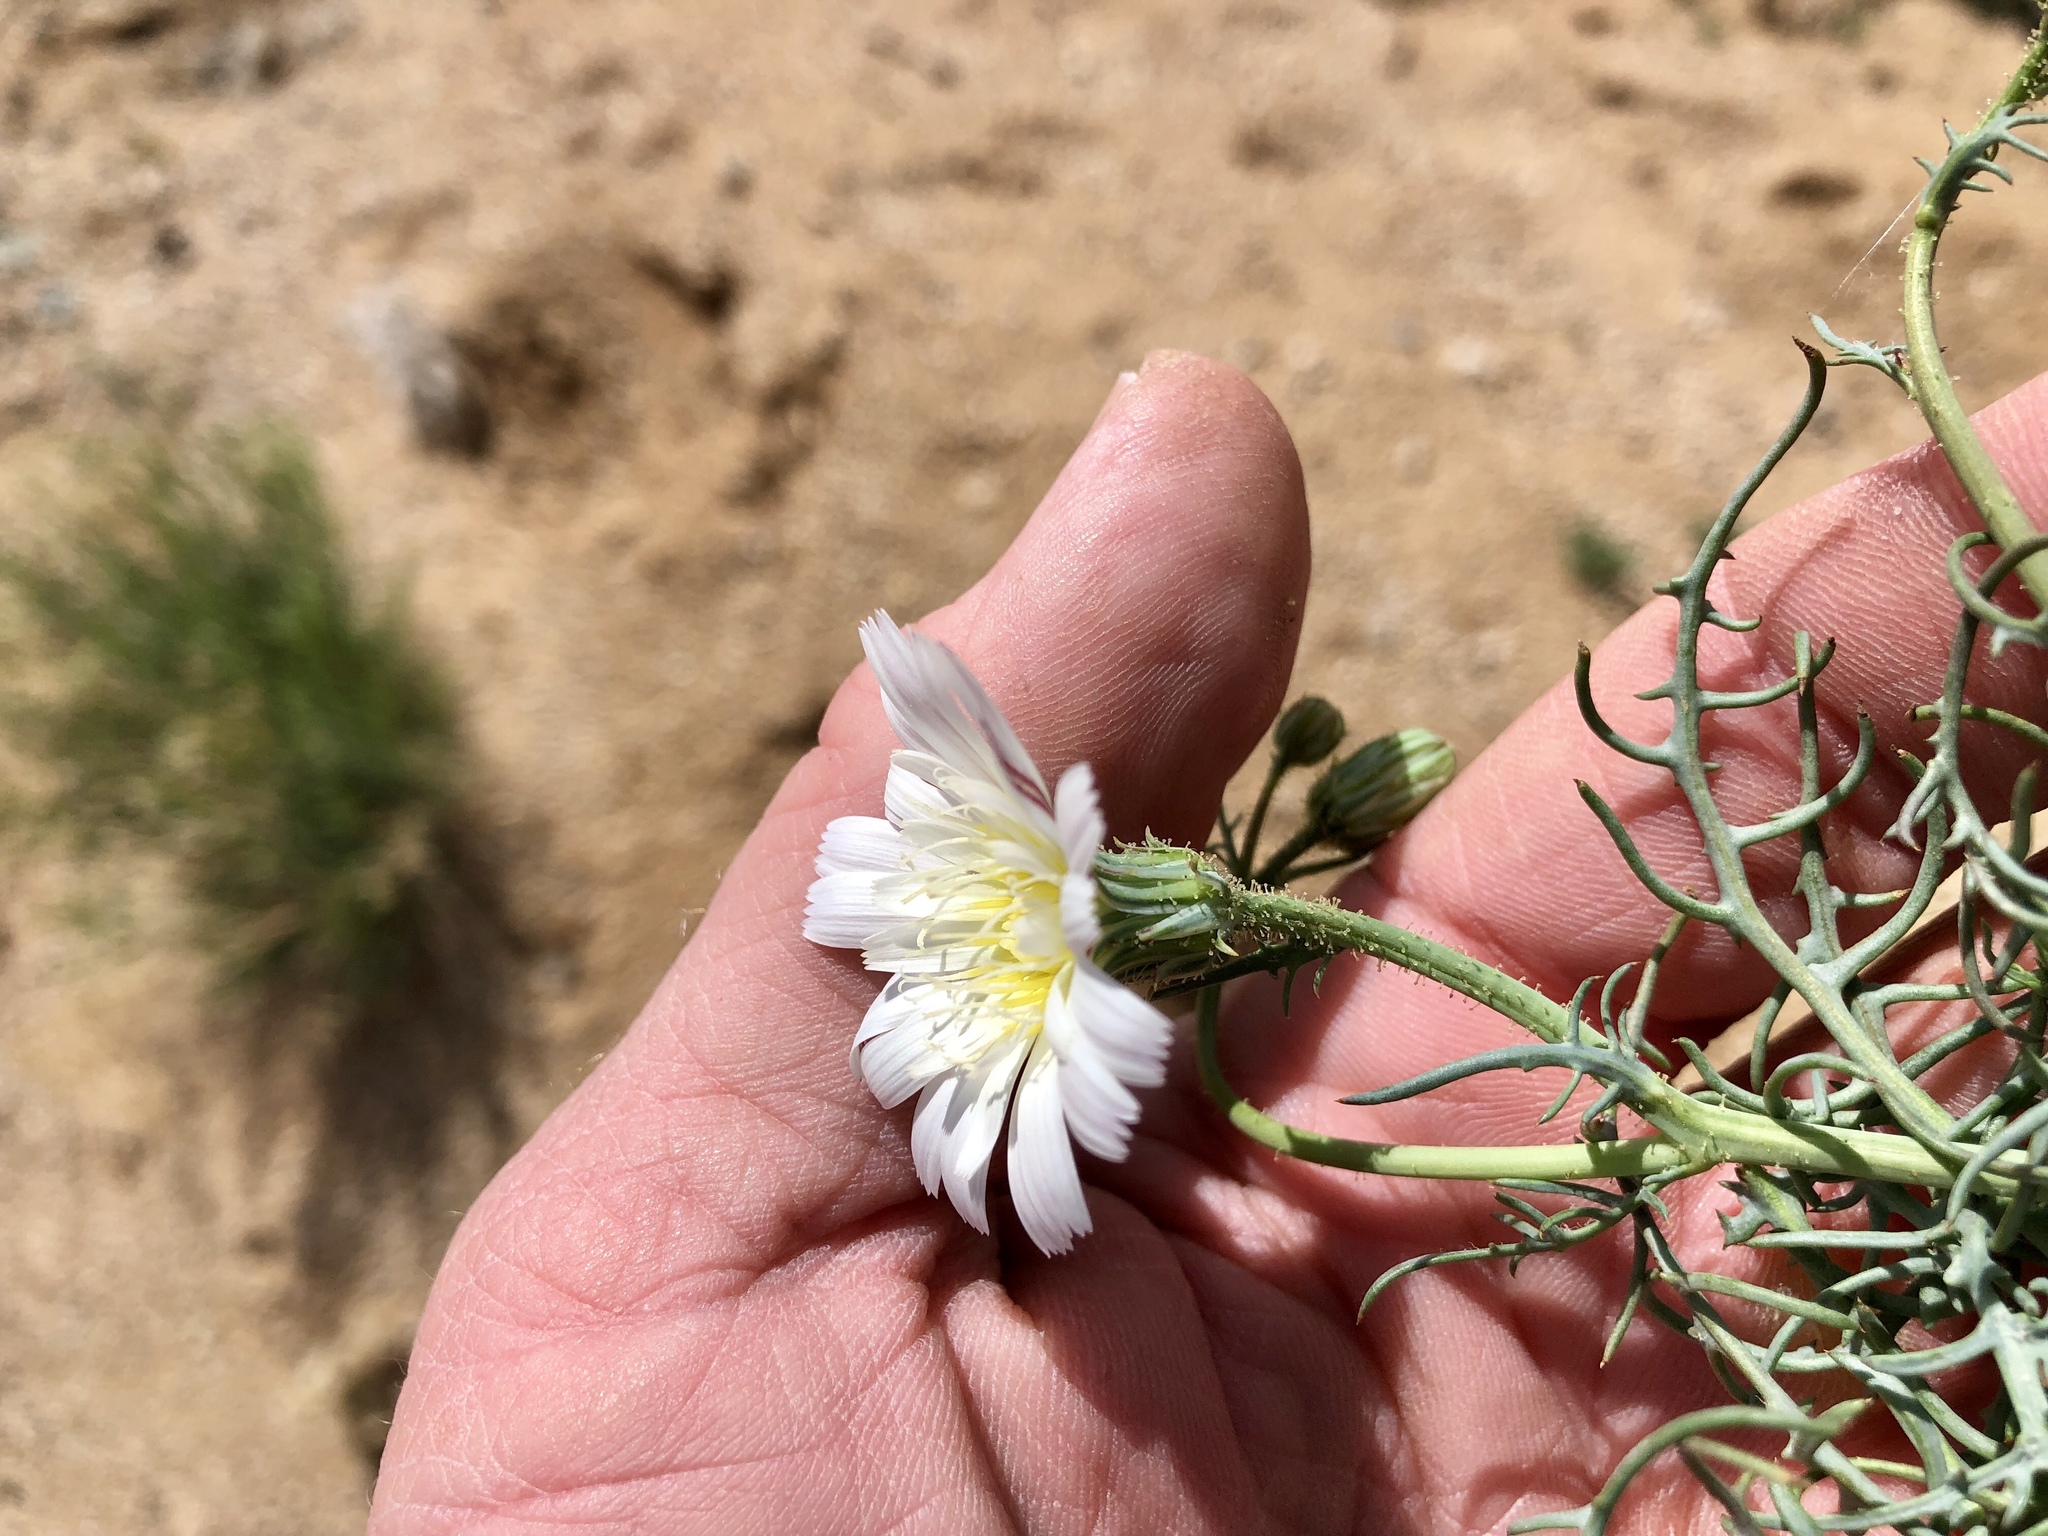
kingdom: Plantae
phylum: Tracheophyta
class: Magnoliopsida
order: Asterales
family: Asteraceae
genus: Calycoseris
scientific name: Calycoseris wrightii
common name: White tackstem
